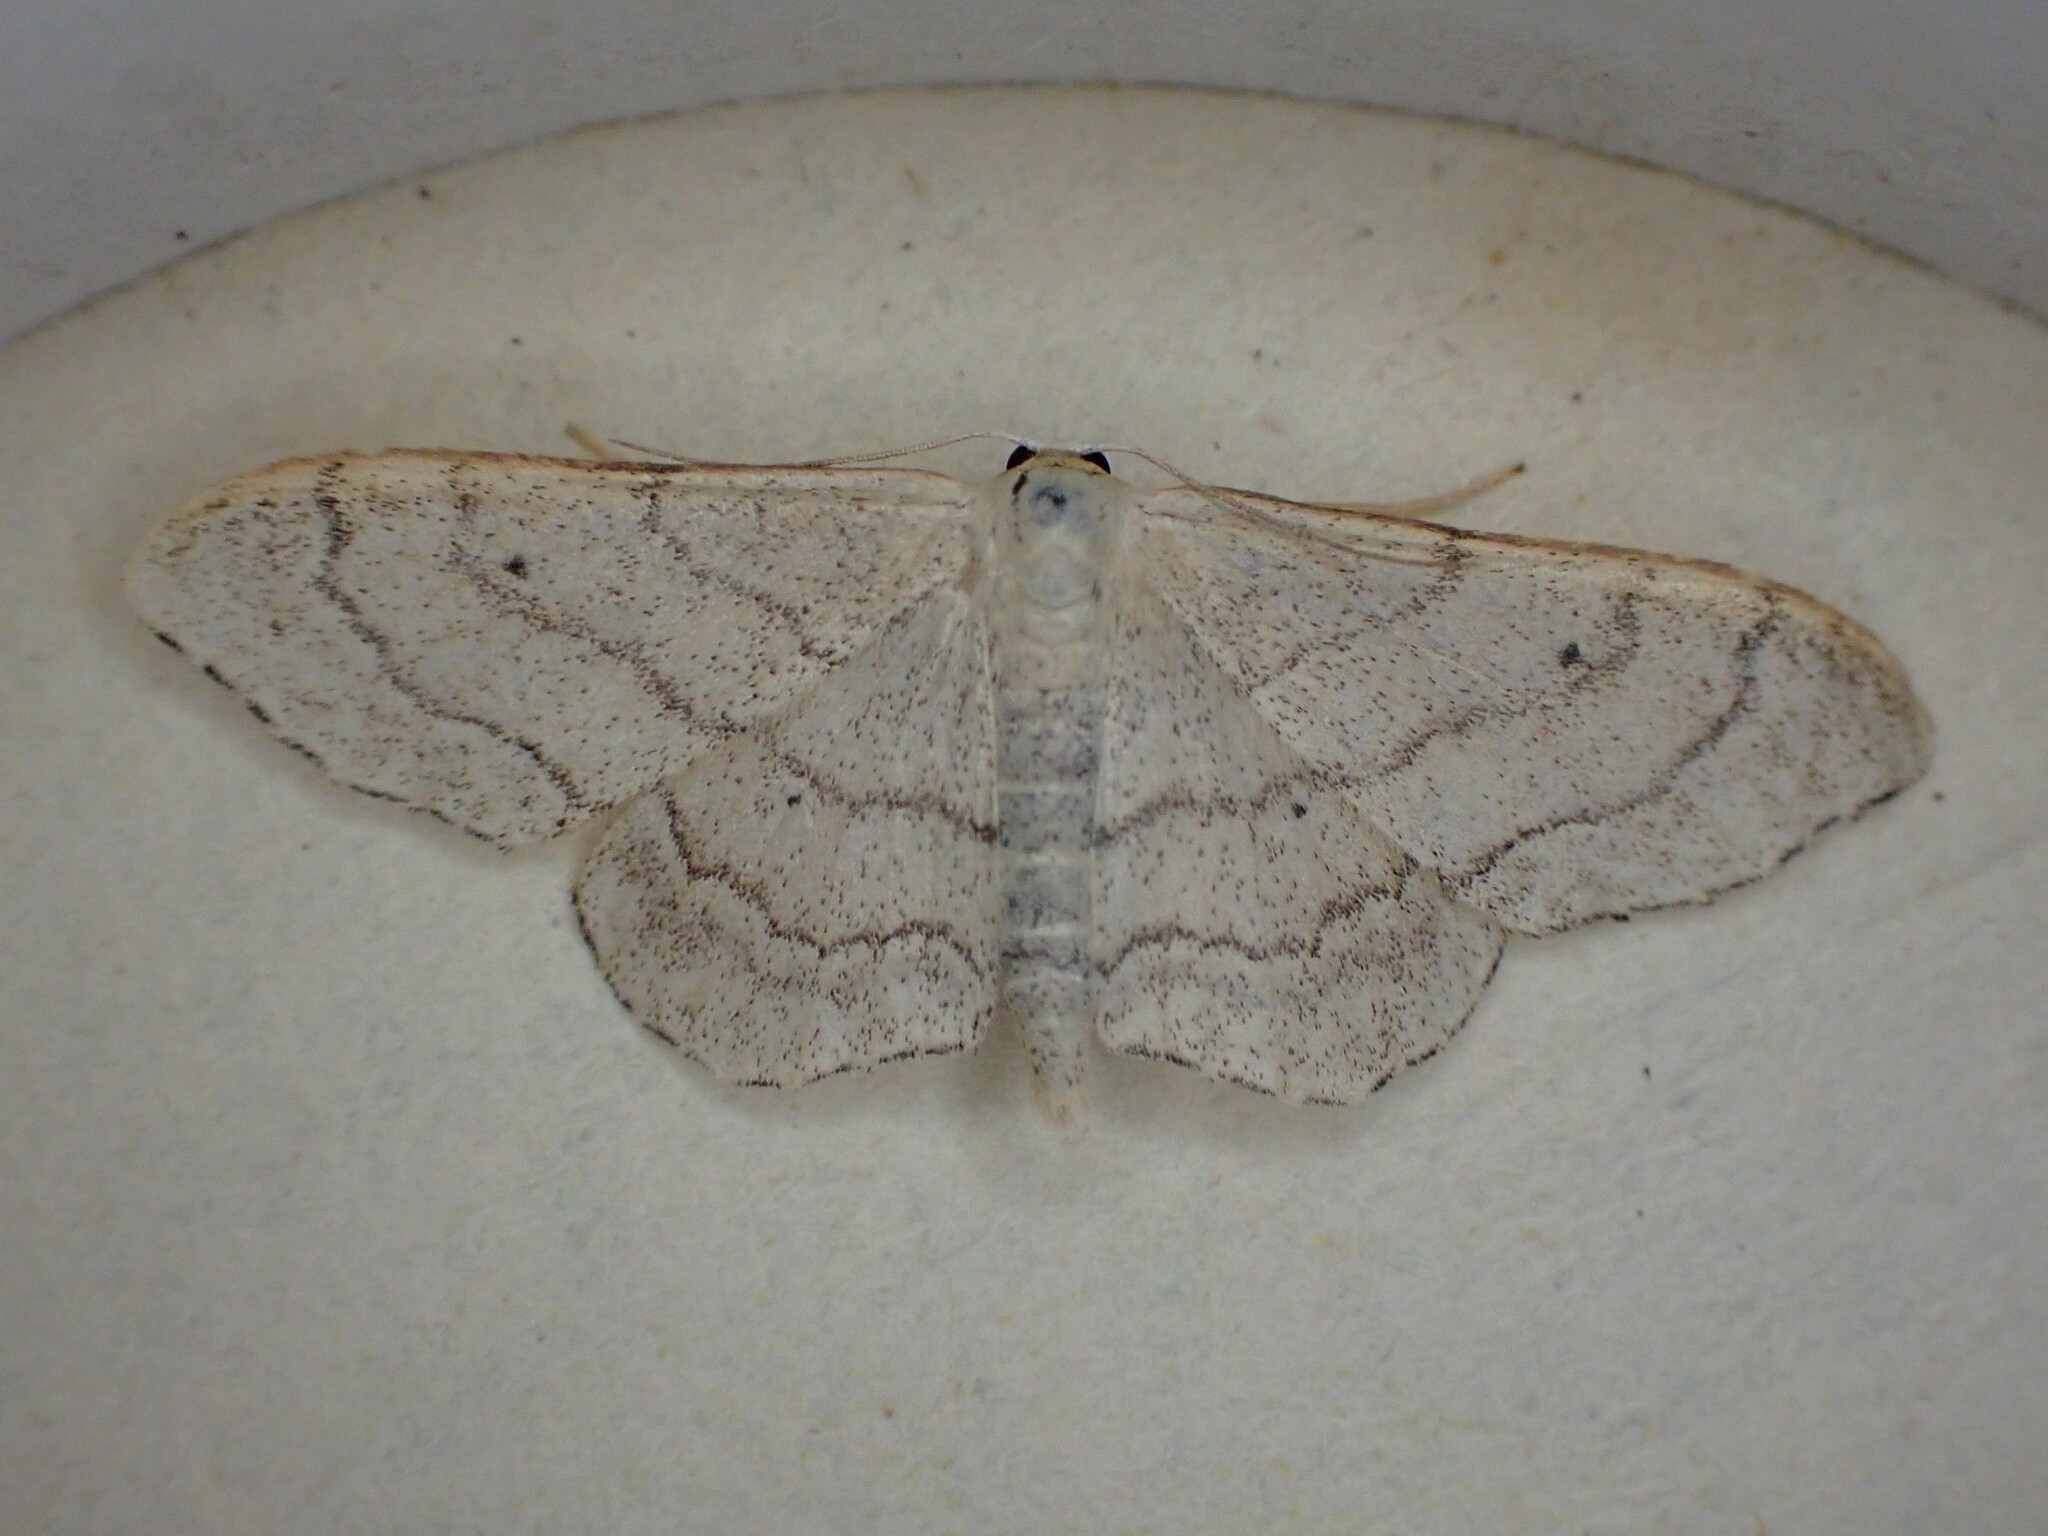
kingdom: Animalia
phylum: Arthropoda
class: Insecta
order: Lepidoptera
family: Geometridae
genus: Idaea
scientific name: Idaea aversata
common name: Riband wave
